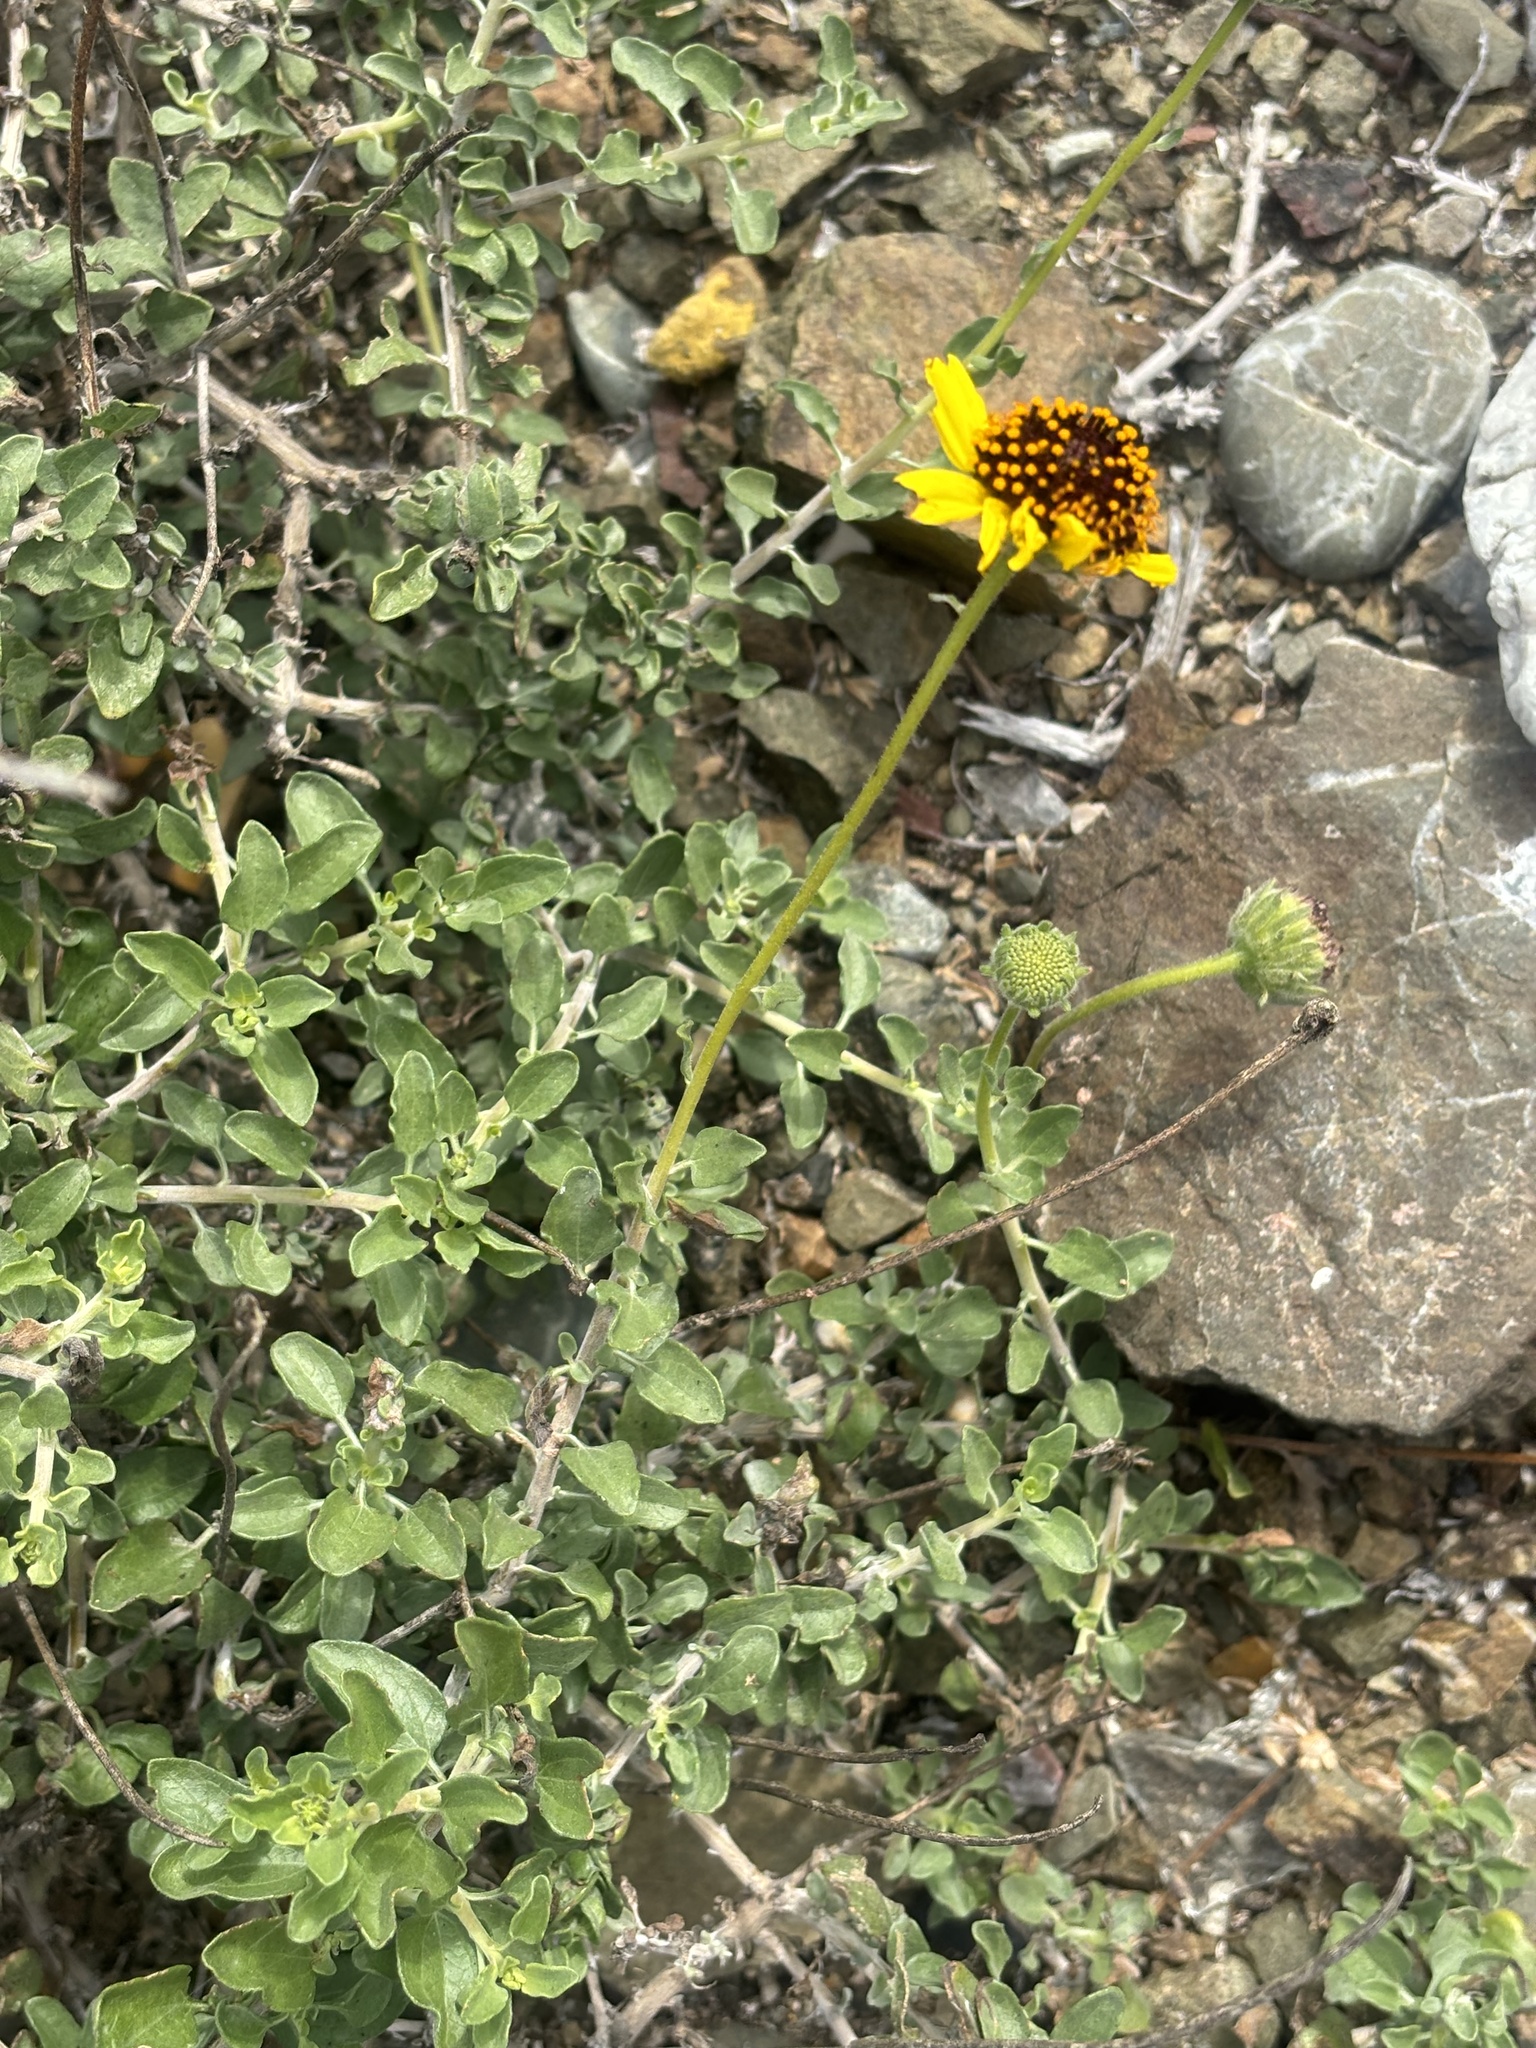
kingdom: Plantae
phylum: Tracheophyta
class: Magnoliopsida
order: Asterales
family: Asteraceae
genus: Encelia
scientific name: Encelia asperifolia
